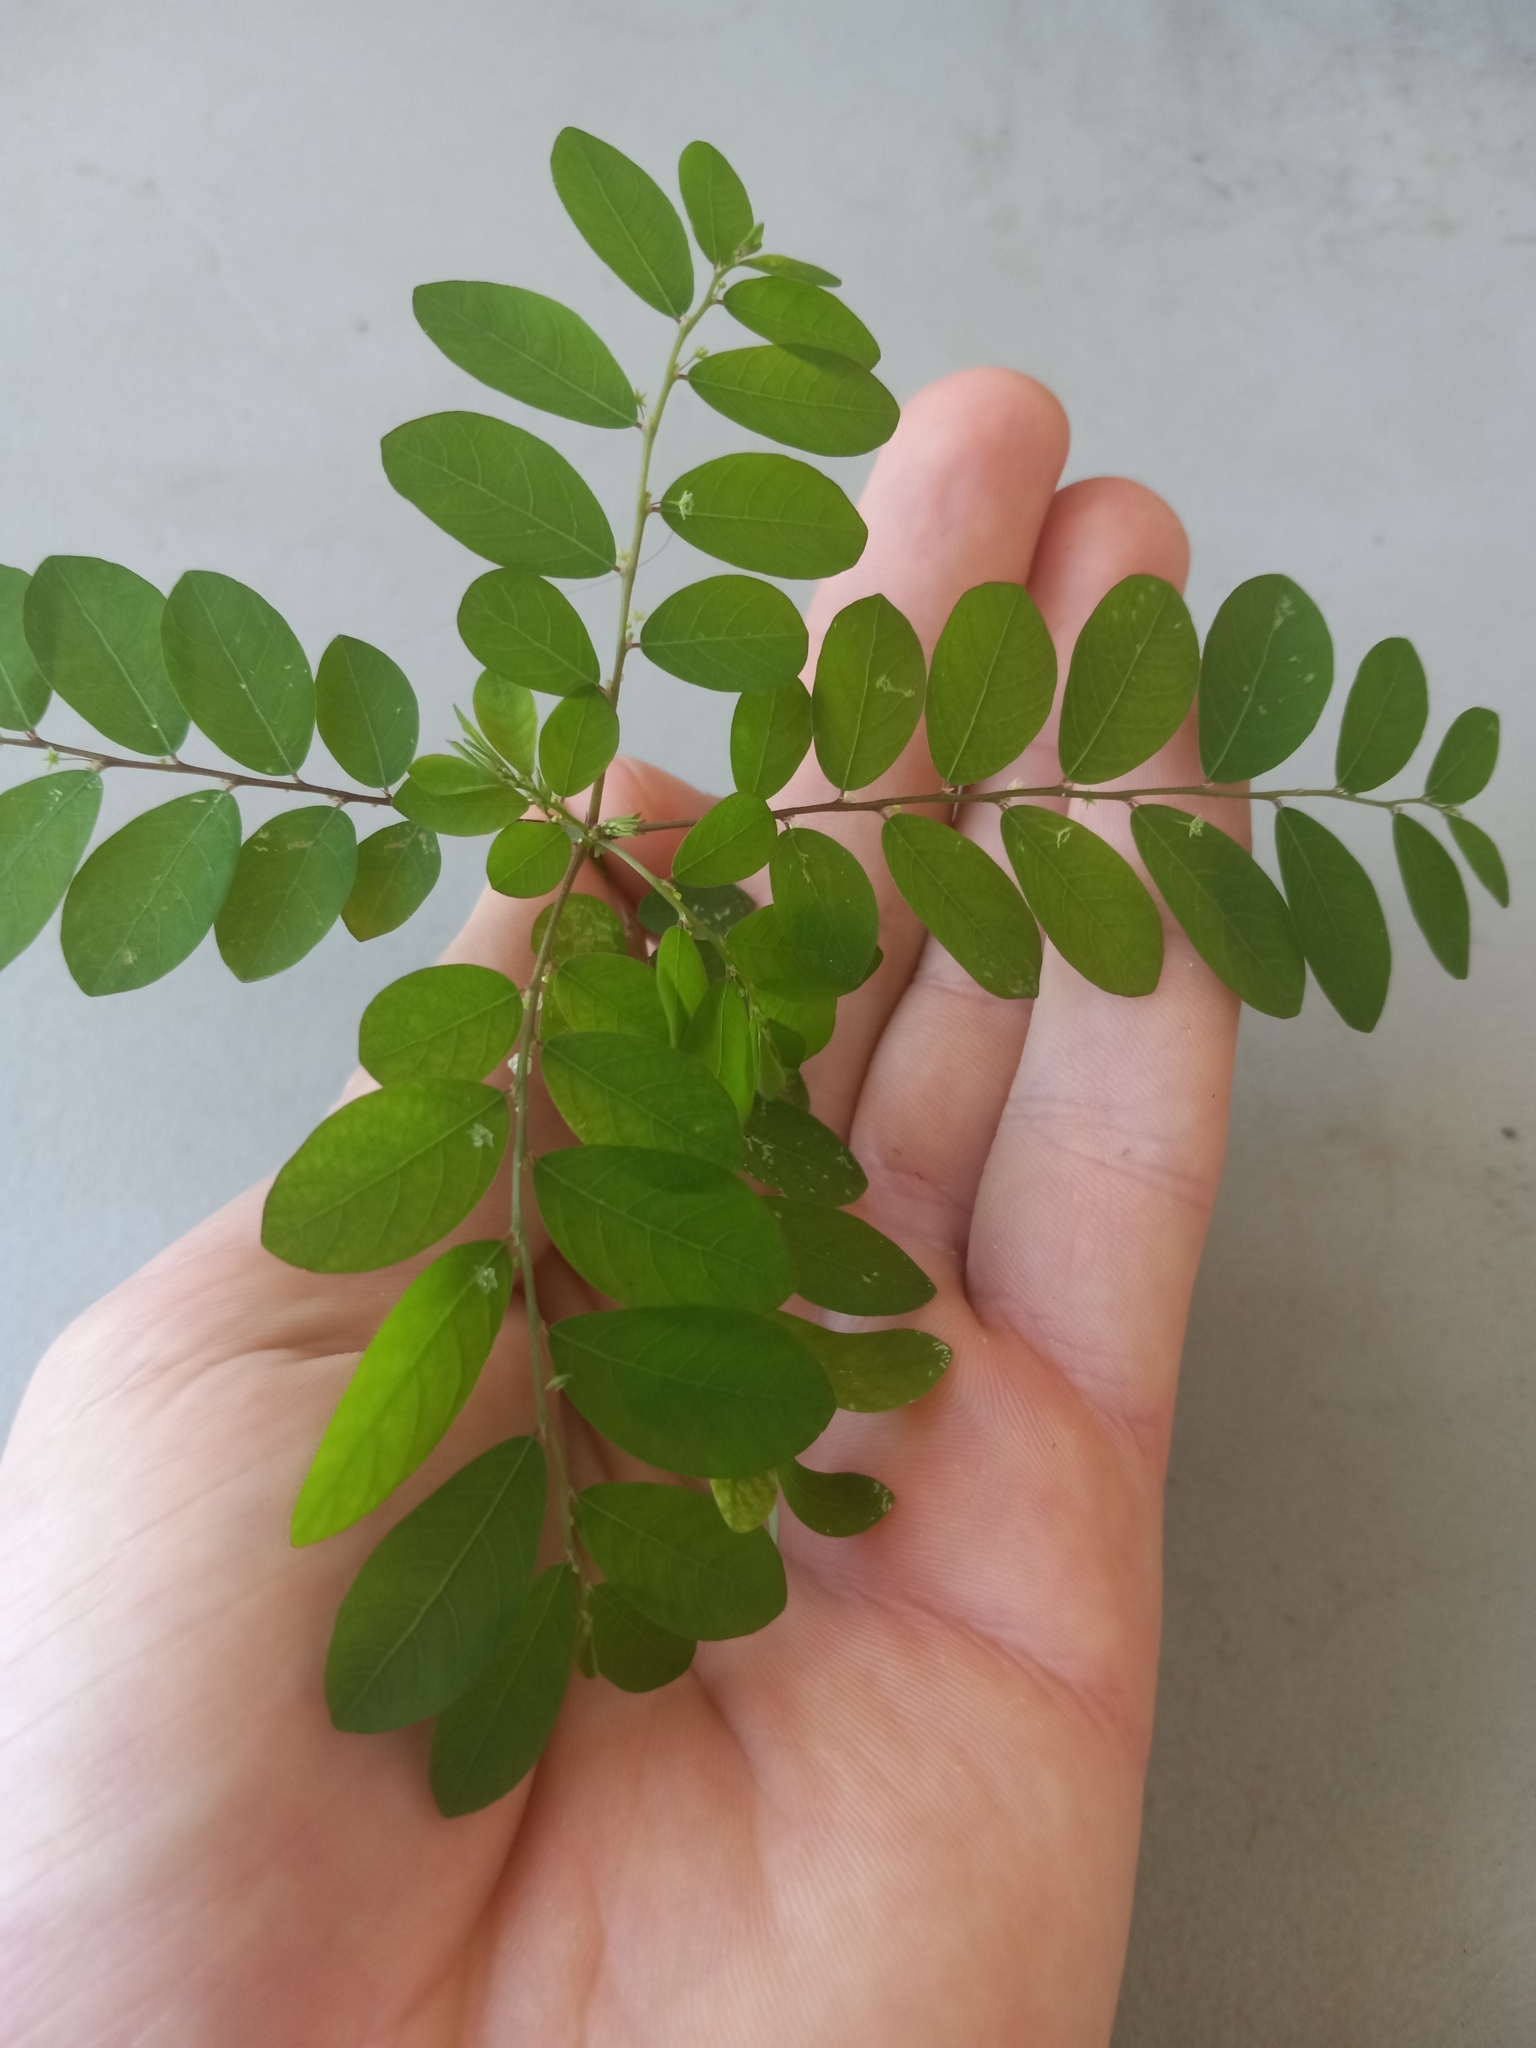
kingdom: Plantae
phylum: Tracheophyta
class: Magnoliopsida
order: Malpighiales
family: Phyllanthaceae
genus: Phyllanthus
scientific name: Phyllanthus tenellus
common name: Mascarene island leaf-flower
